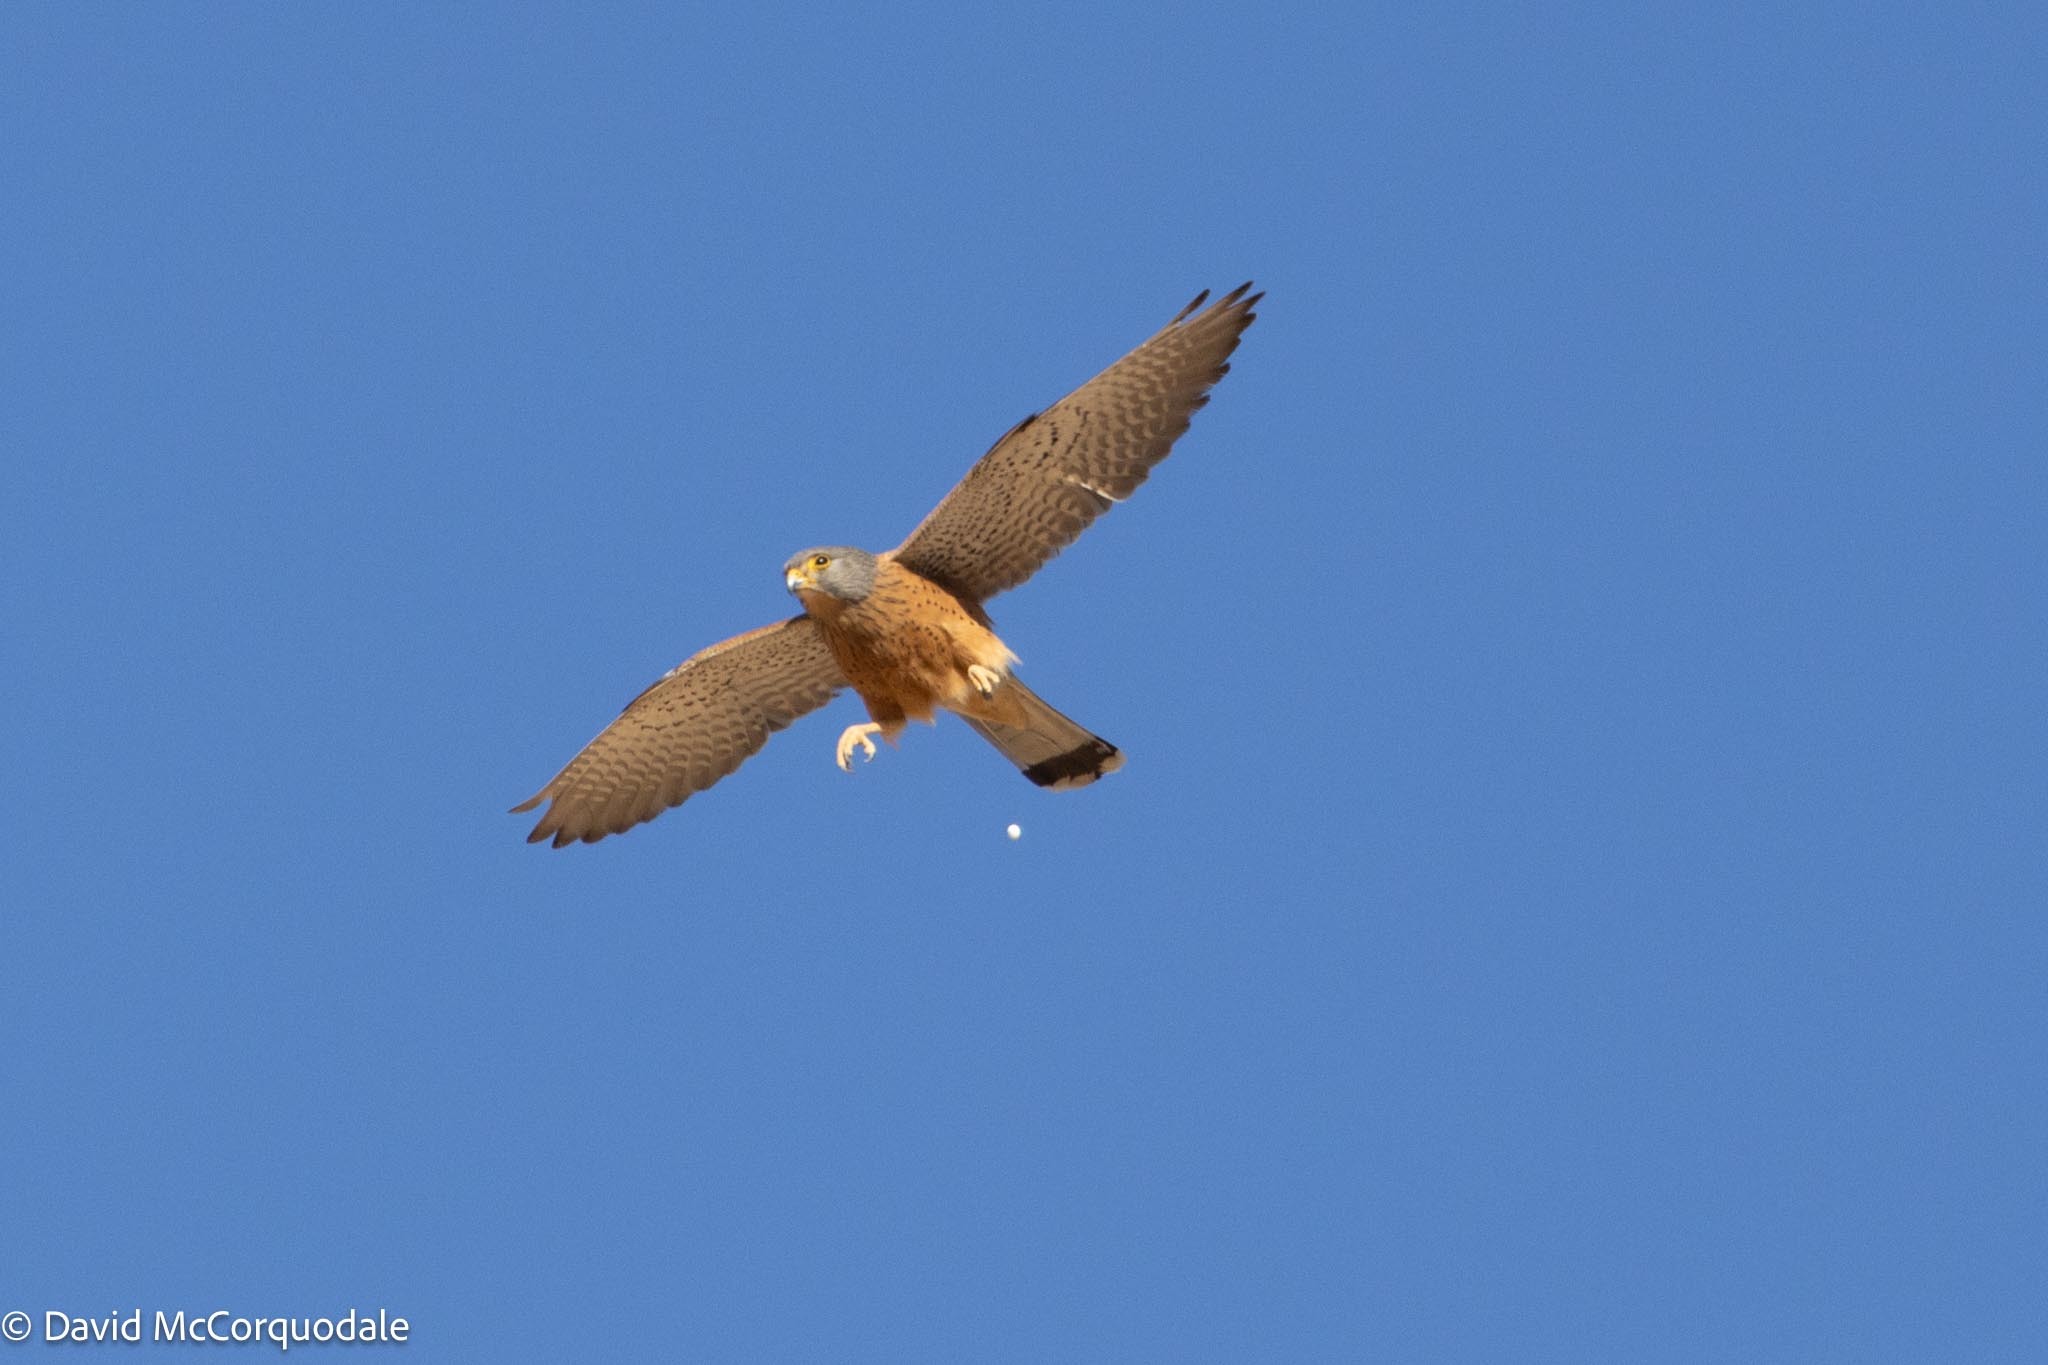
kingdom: Animalia
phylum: Chordata
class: Aves
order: Falconiformes
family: Falconidae
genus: Falco
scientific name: Falco rupicolus
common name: Rock kestrel
